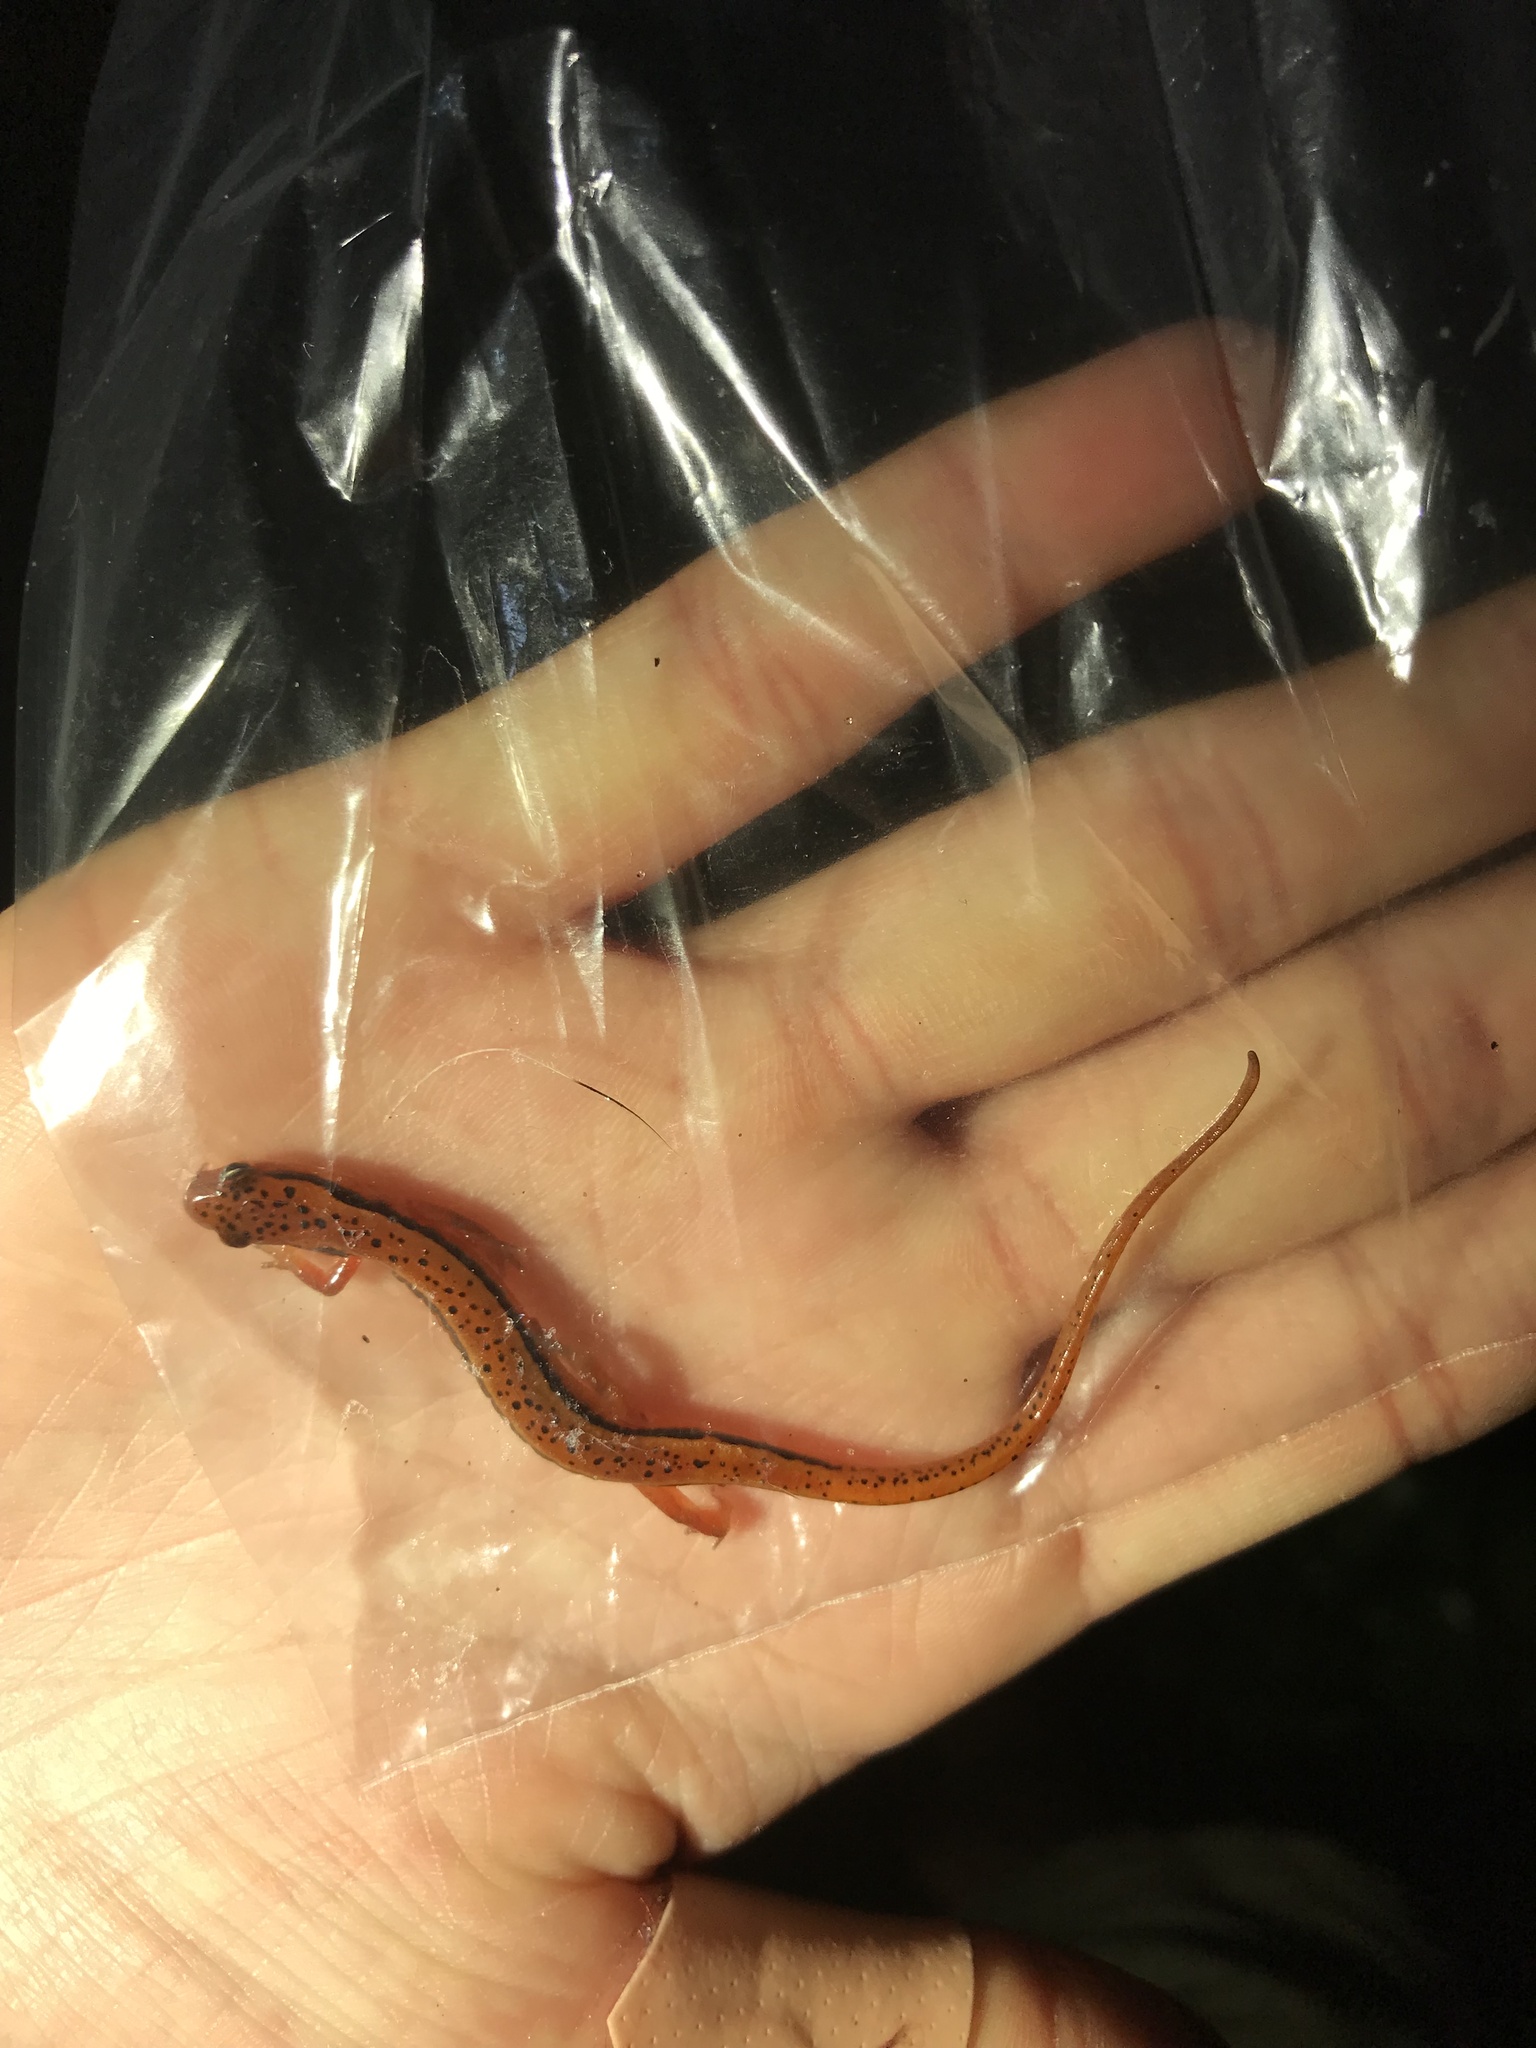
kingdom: Animalia
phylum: Chordata
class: Amphibia
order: Caudata
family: Plethodontidae
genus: Eurycea
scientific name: Eurycea wilderae
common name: Blue ridge two-lined salamander
